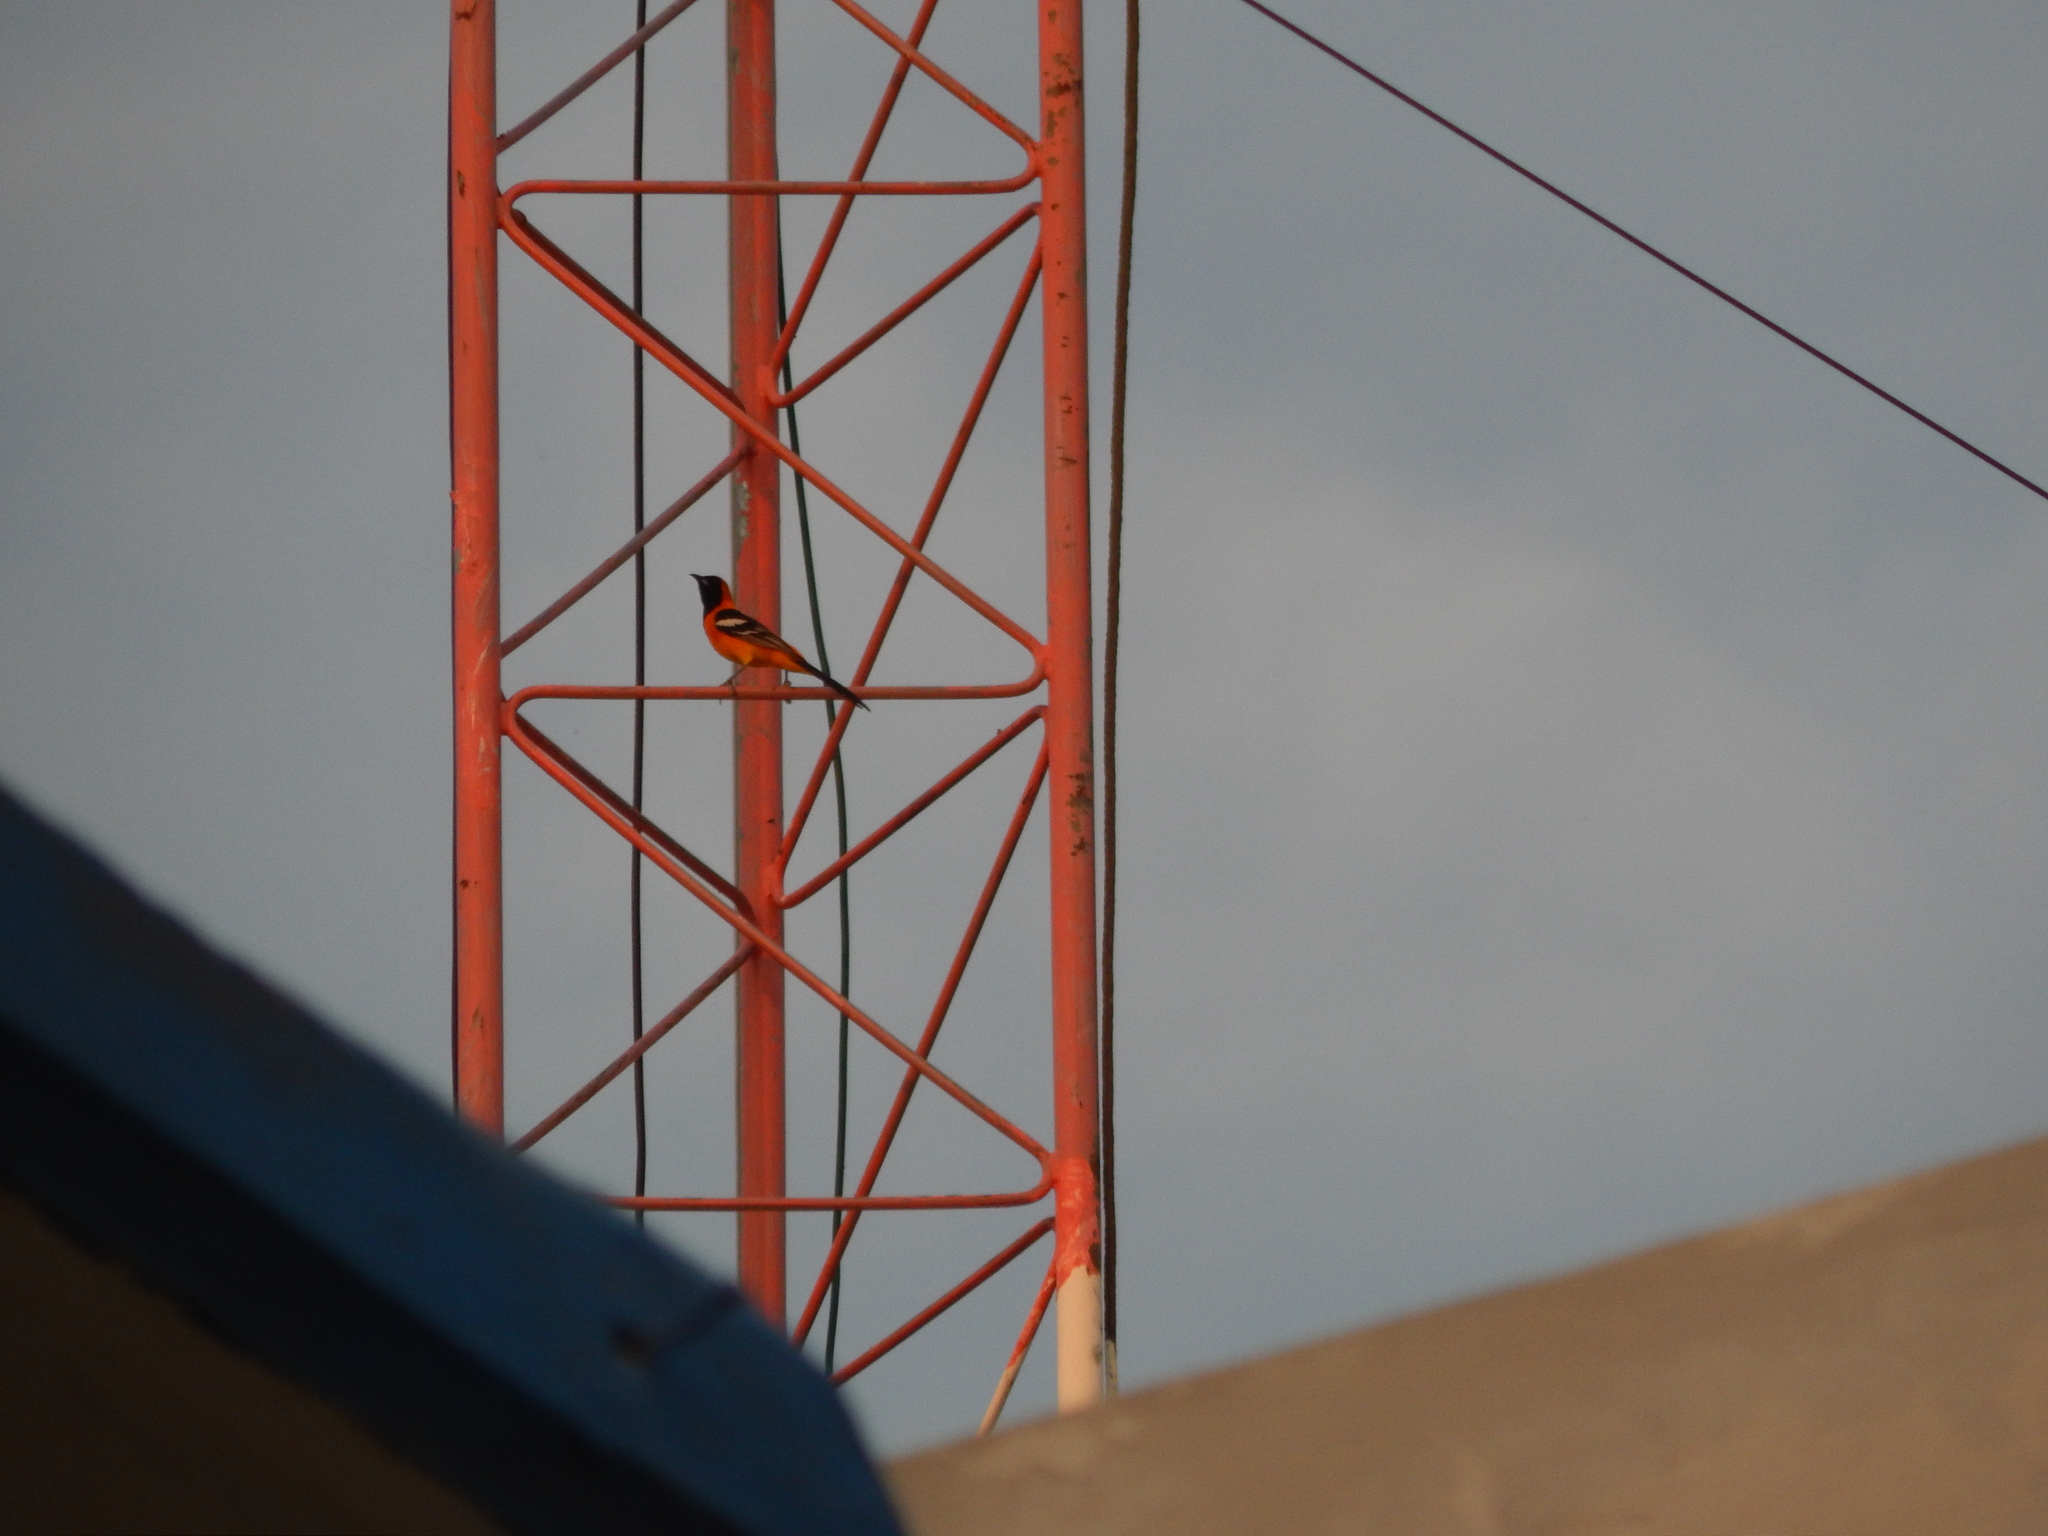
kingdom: Animalia
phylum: Chordata
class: Aves
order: Passeriformes
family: Icteridae
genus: Icterus
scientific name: Icterus cucullatus
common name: Hooded oriole
